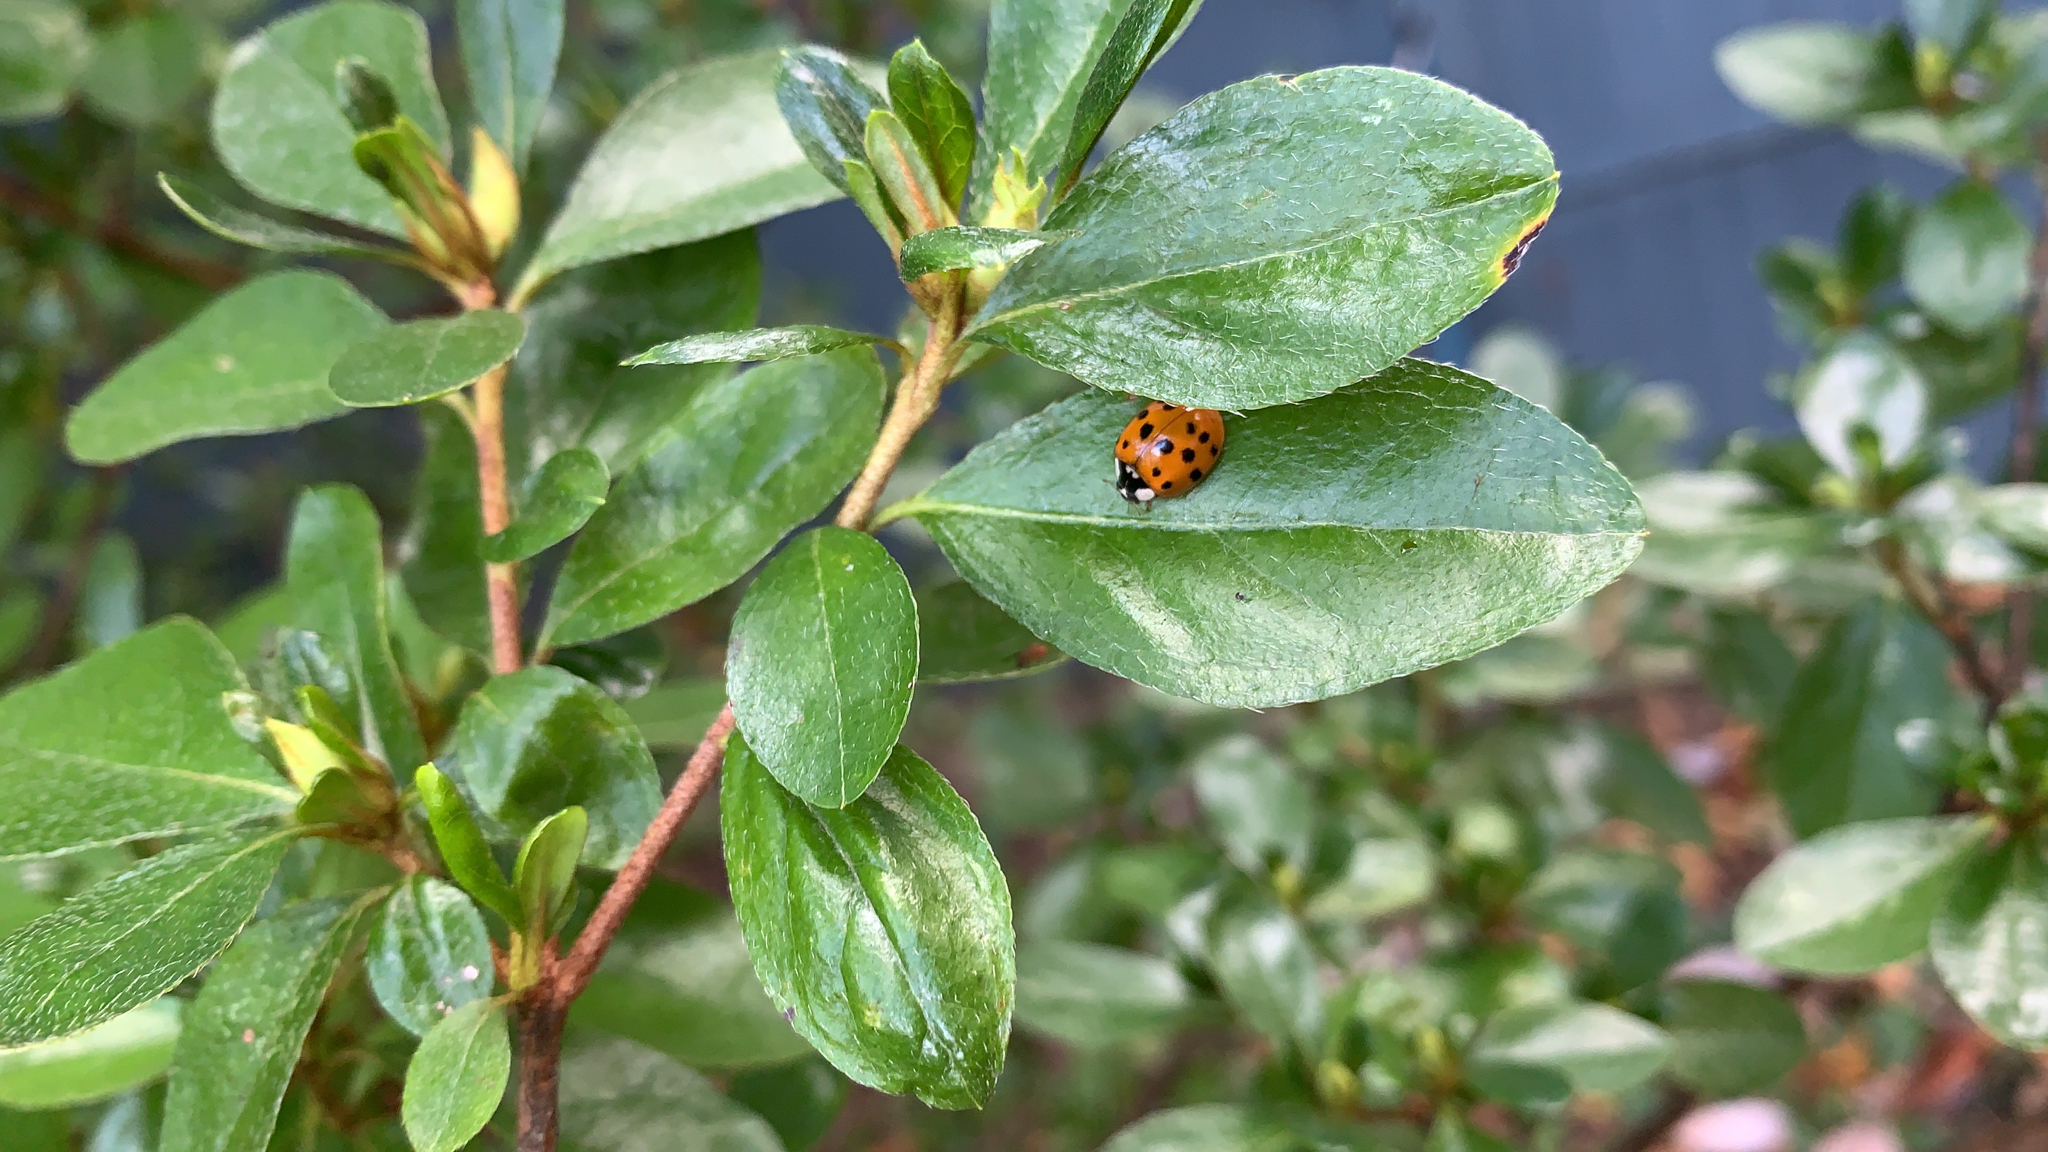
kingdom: Animalia
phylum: Arthropoda
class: Insecta
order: Coleoptera
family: Coccinellidae
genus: Harmonia
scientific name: Harmonia axyridis
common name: Harlequin ladybird
